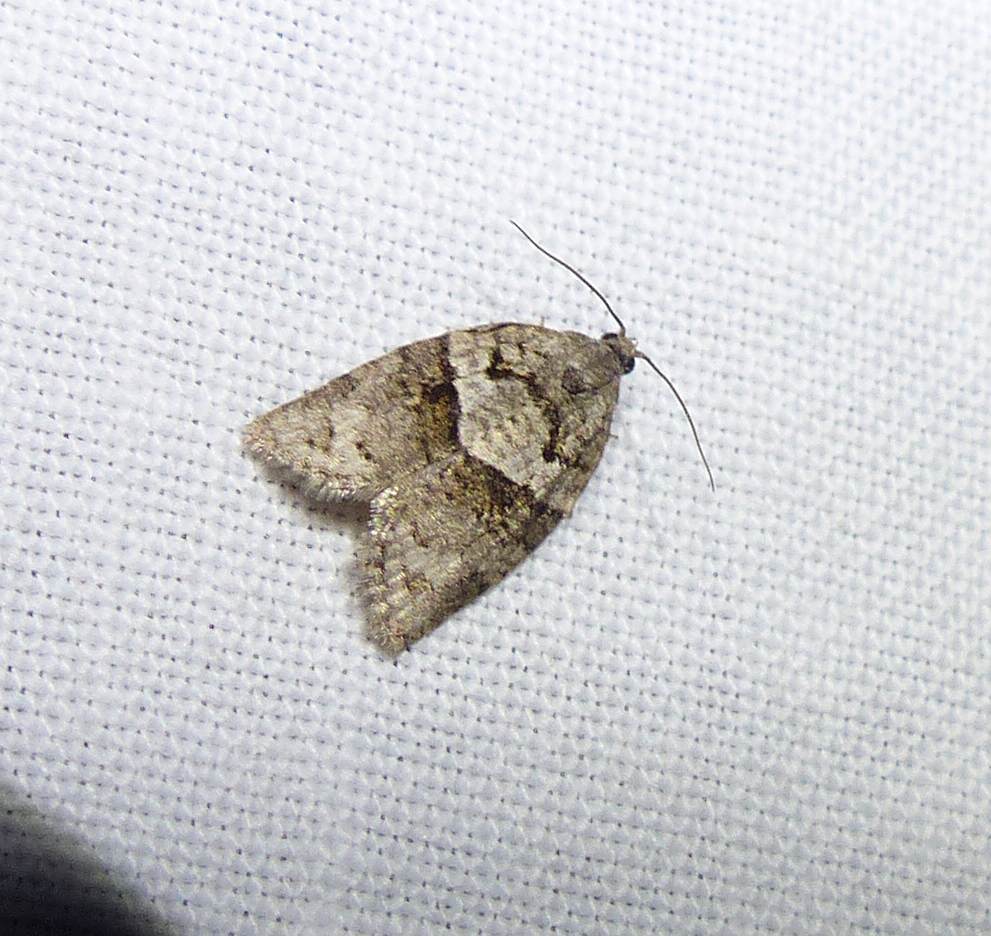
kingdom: Animalia
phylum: Arthropoda
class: Insecta
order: Lepidoptera
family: Tortricidae
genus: Syndemis
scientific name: Syndemis afflictana
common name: Gray leafroller moth
